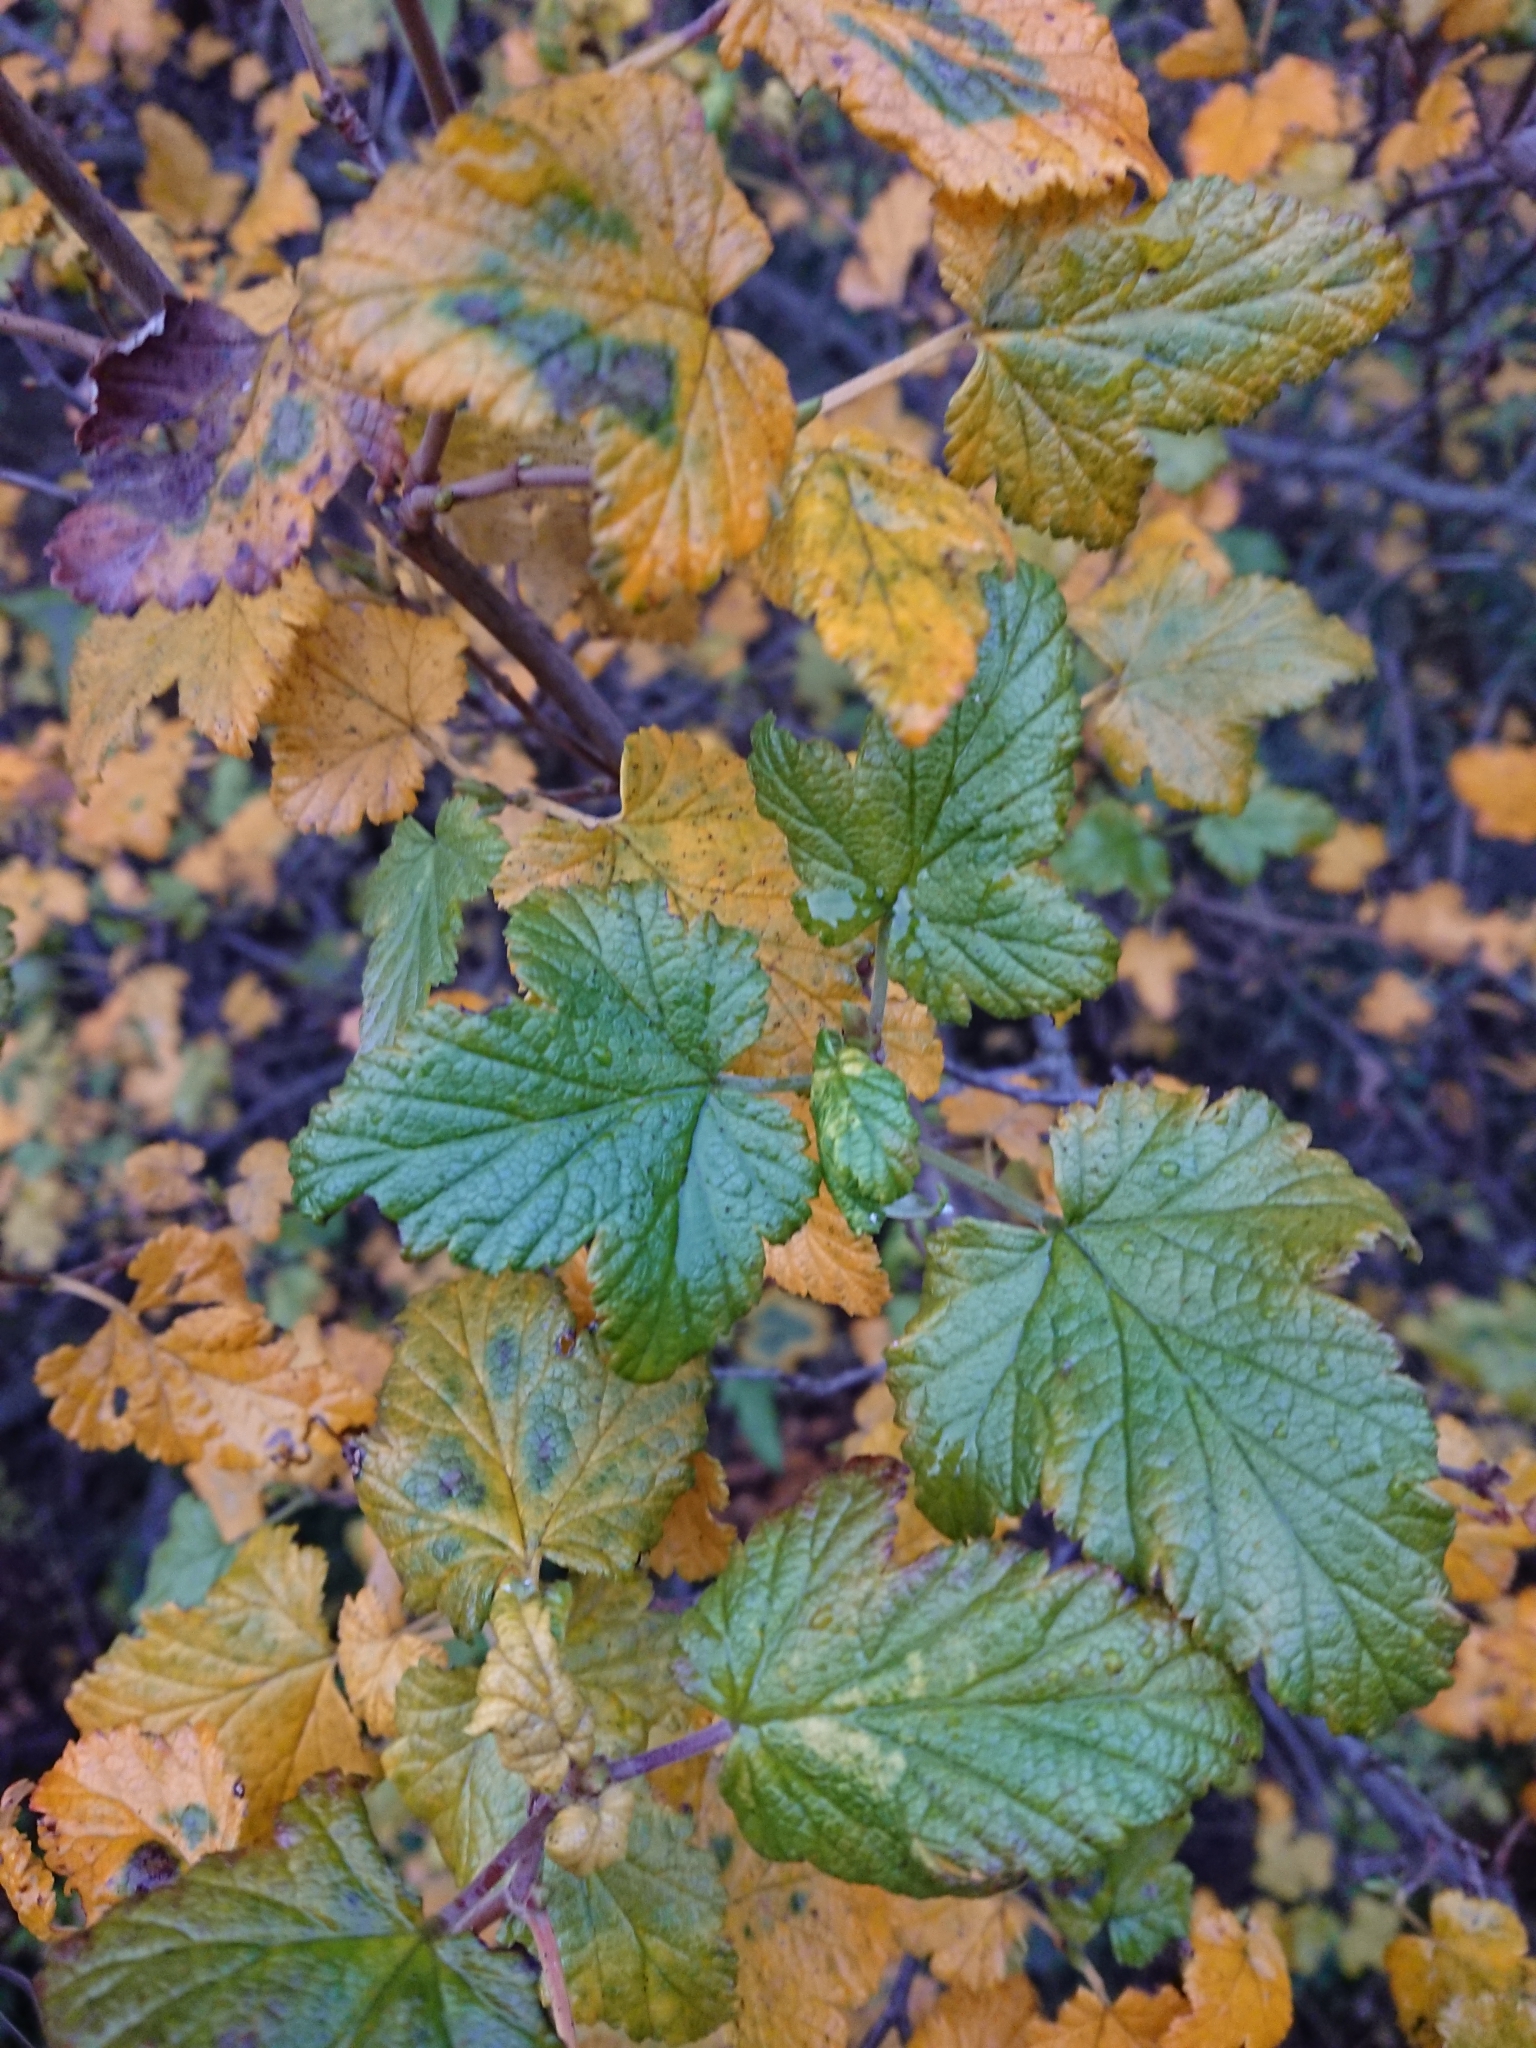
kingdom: Plantae
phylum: Tracheophyta
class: Magnoliopsida
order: Saxifragales
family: Grossulariaceae
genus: Ribes
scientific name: Ribes magellanicum
